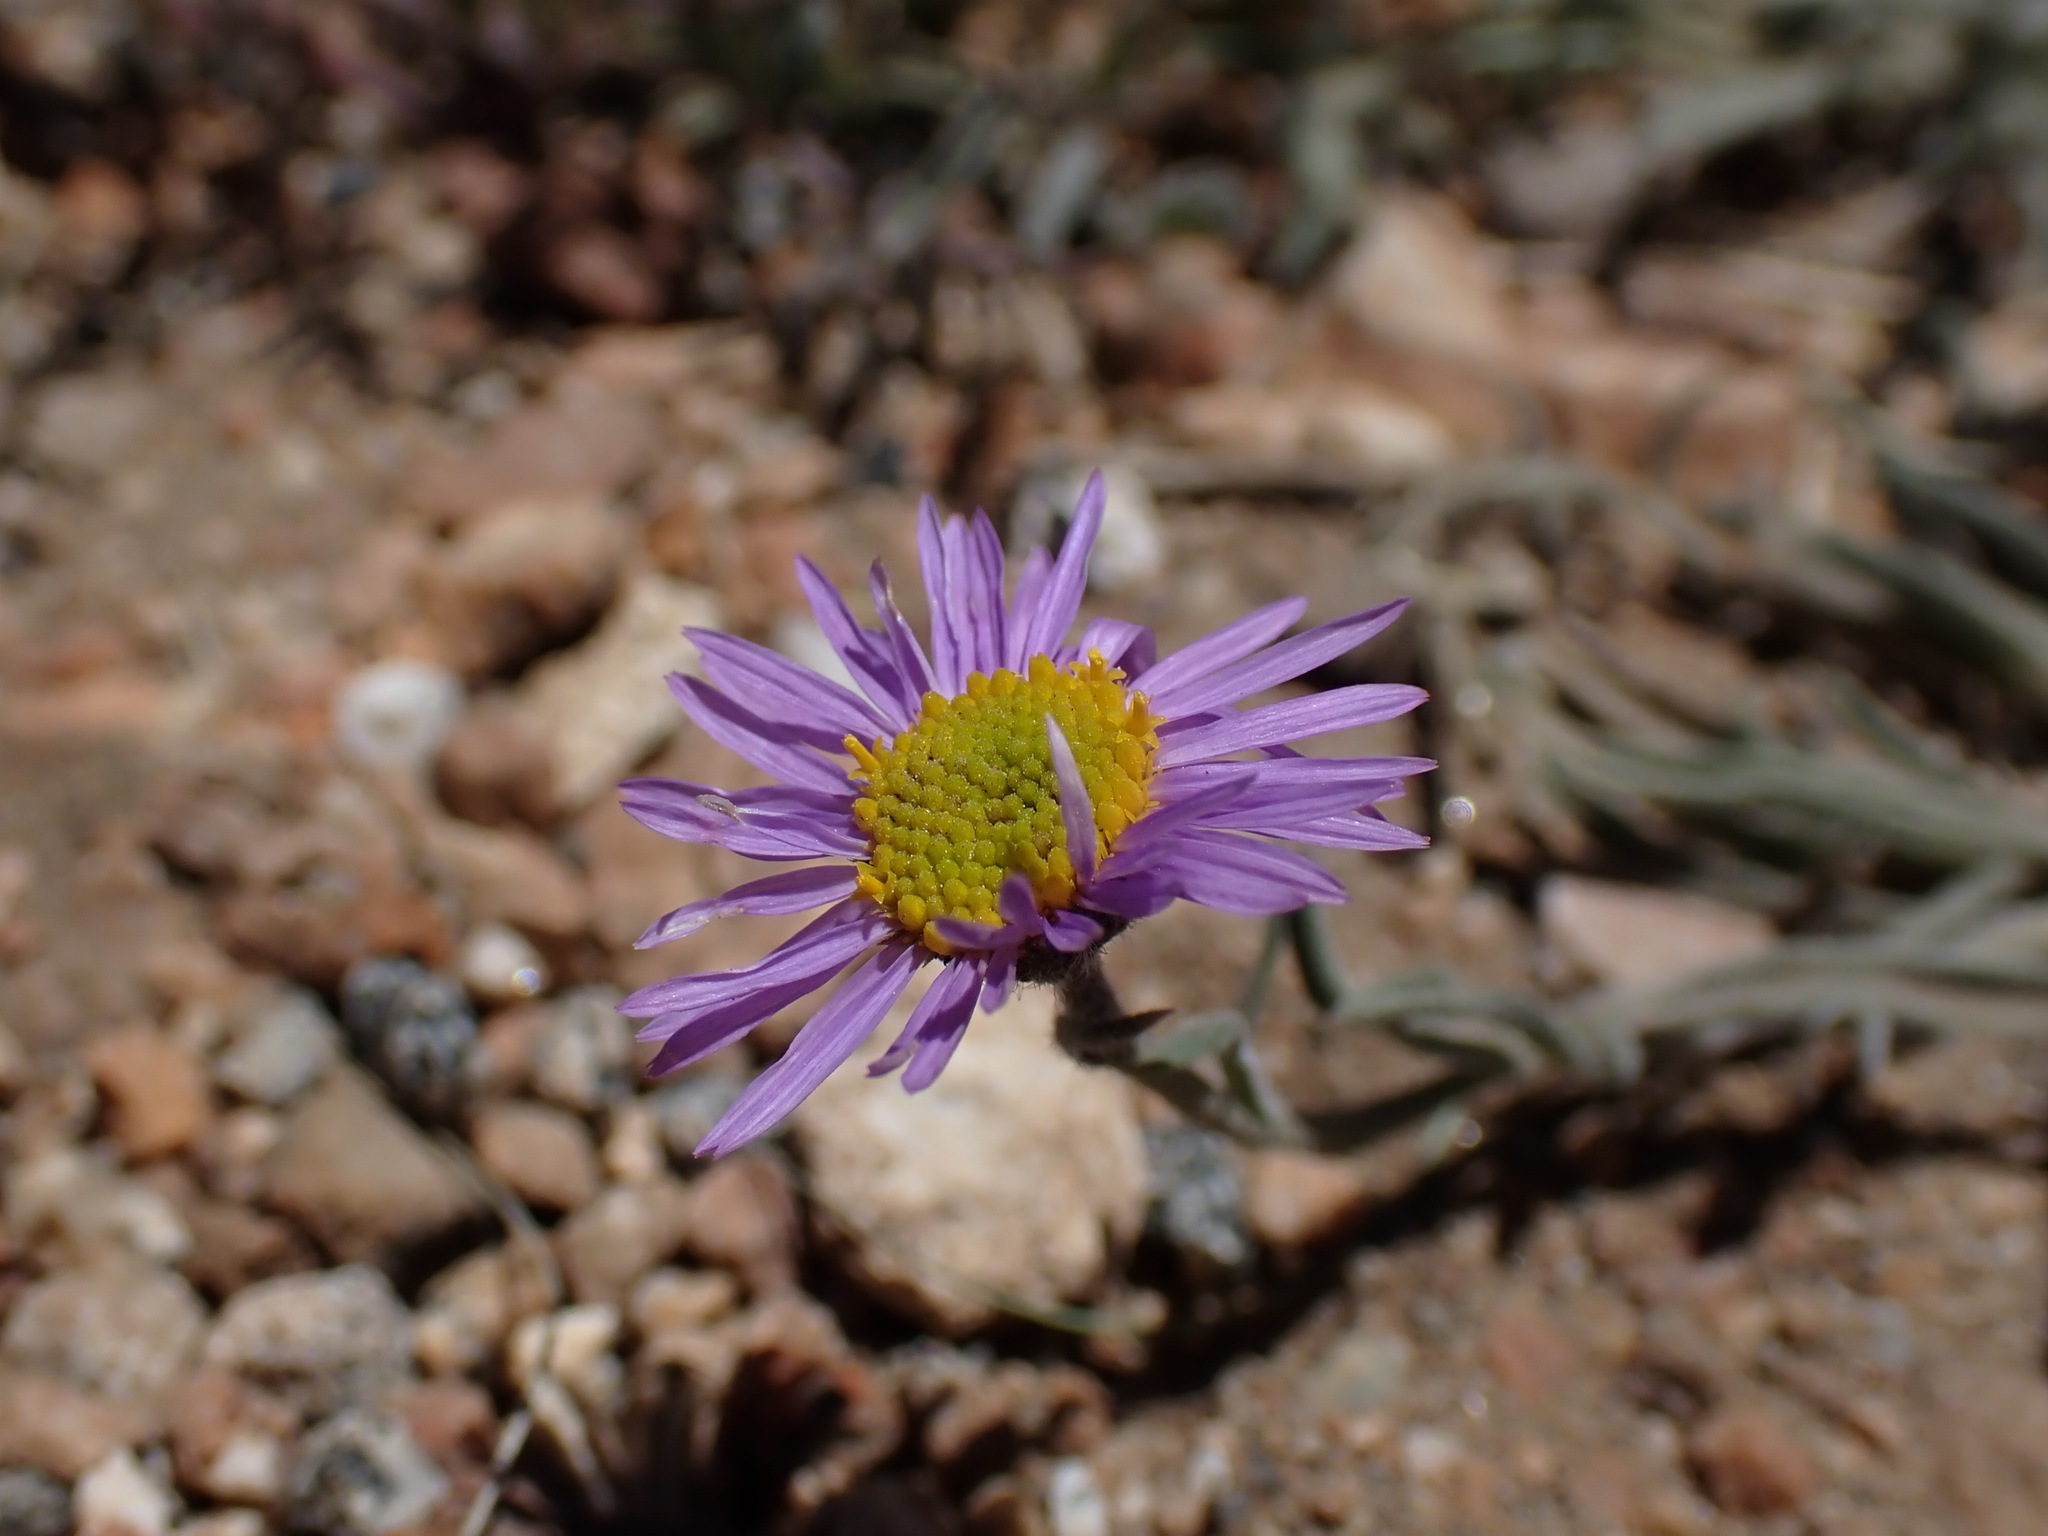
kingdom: Plantae
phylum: Tracheophyta
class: Magnoliopsida
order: Asterales
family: Asteraceae
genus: Erigeron
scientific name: Erigeron clokeyi
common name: Clokey's fleabane
